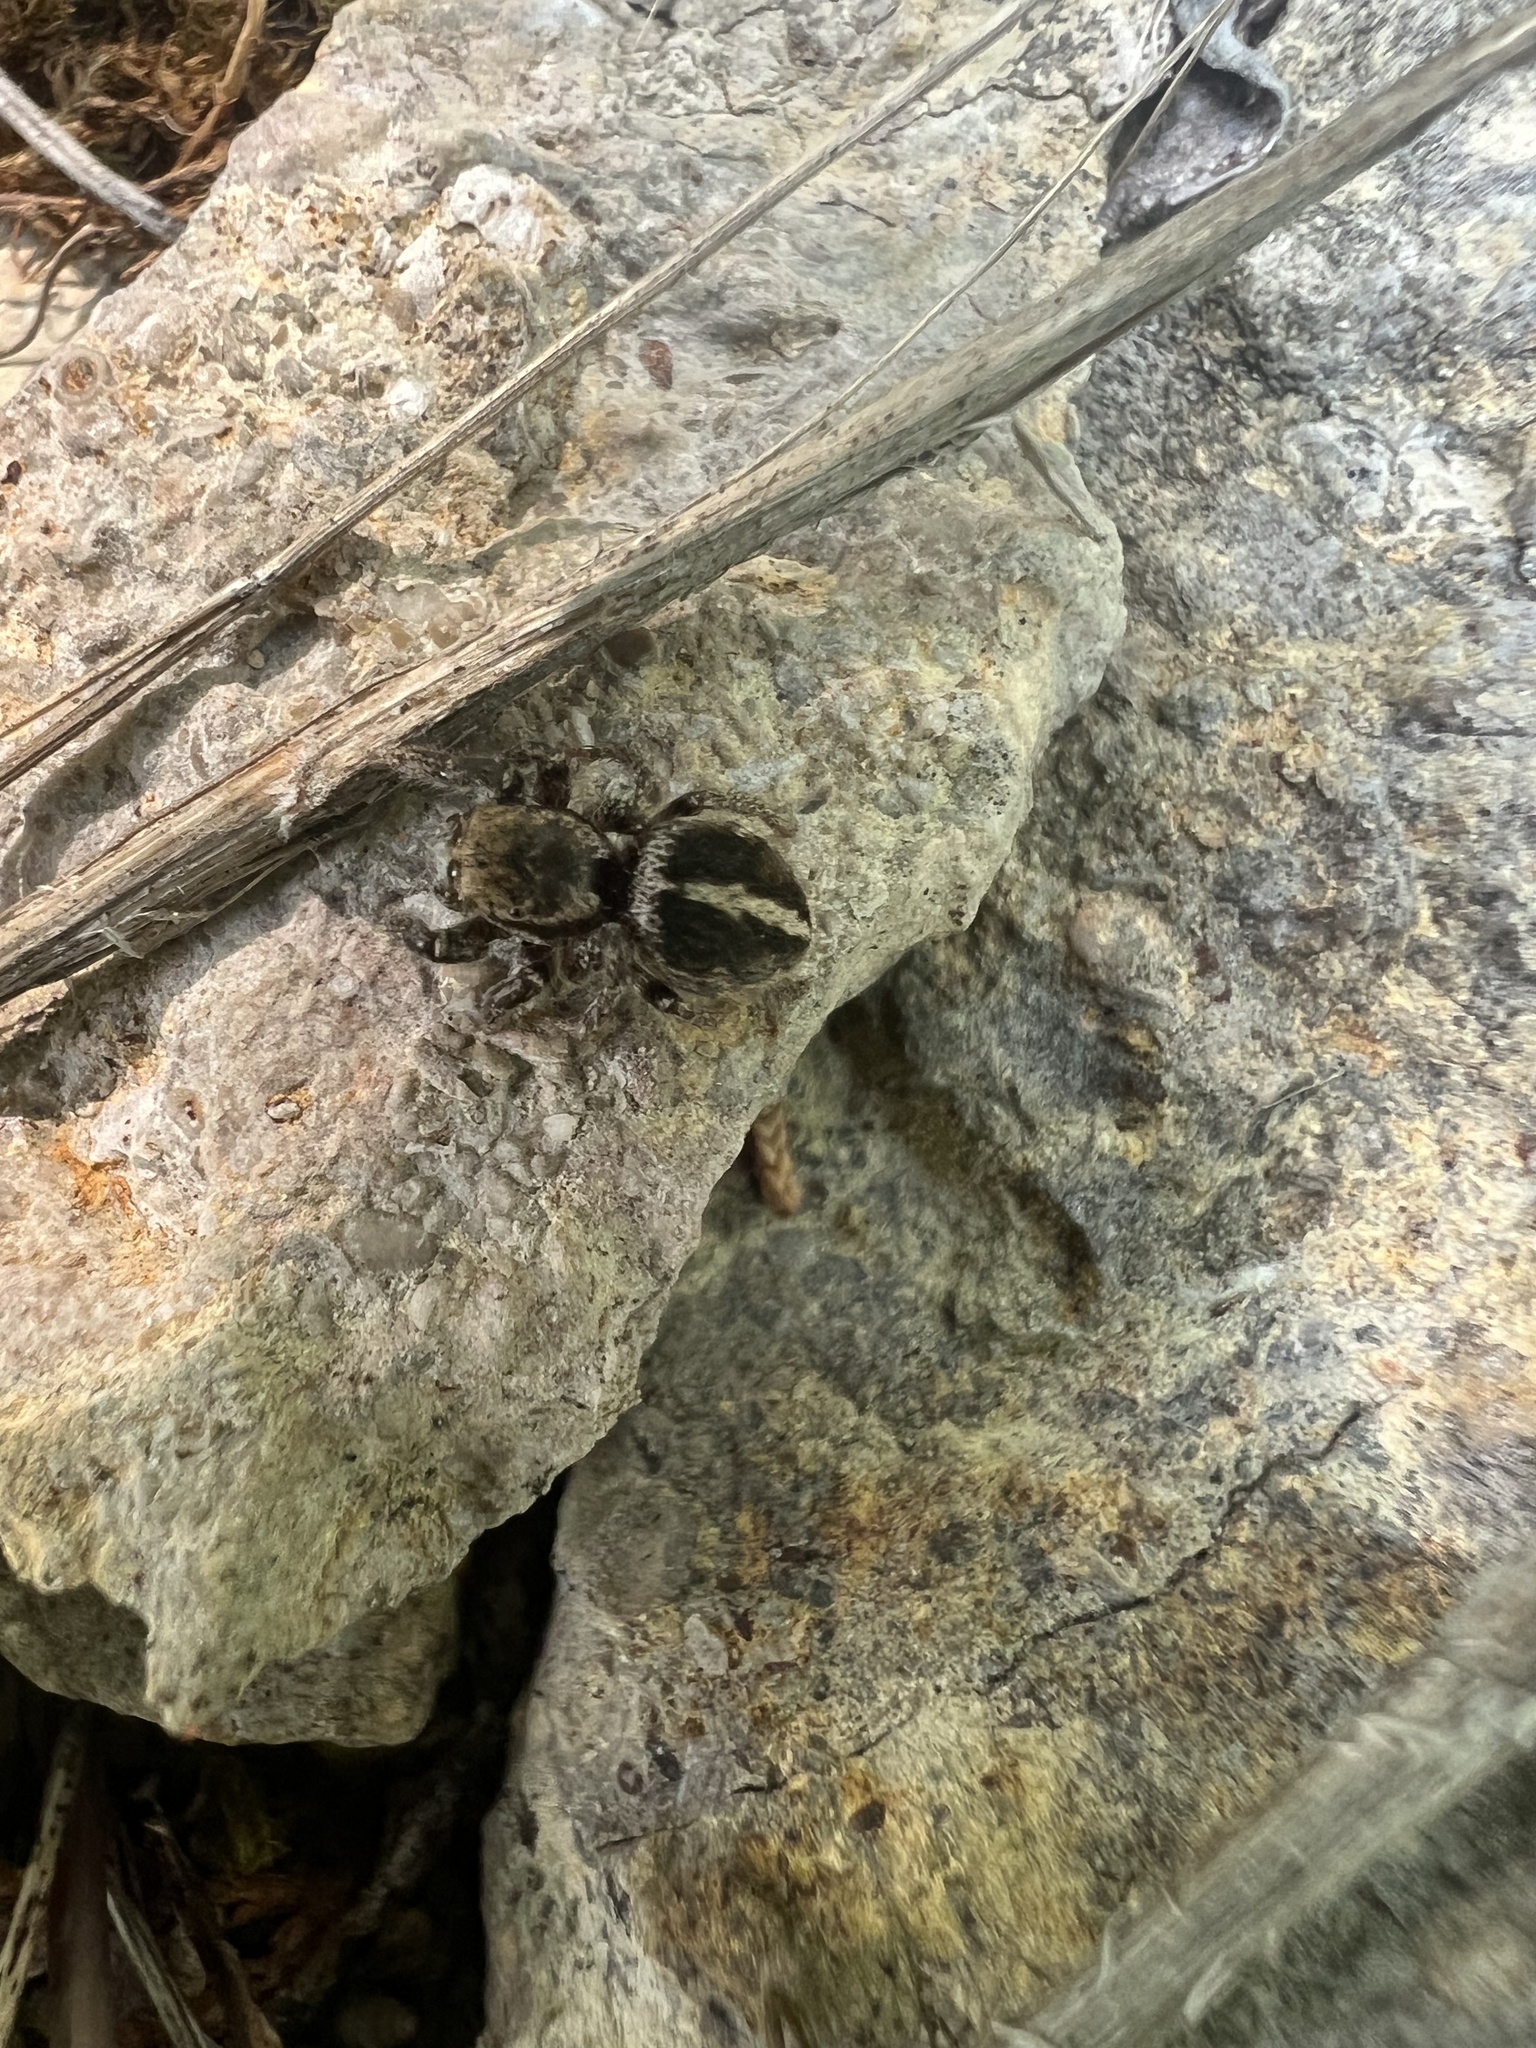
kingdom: Animalia
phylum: Arthropoda
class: Arachnida
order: Araneae
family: Salticidae
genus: Habronattus
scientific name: Habronattus orbus
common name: Orbus paradise spider
